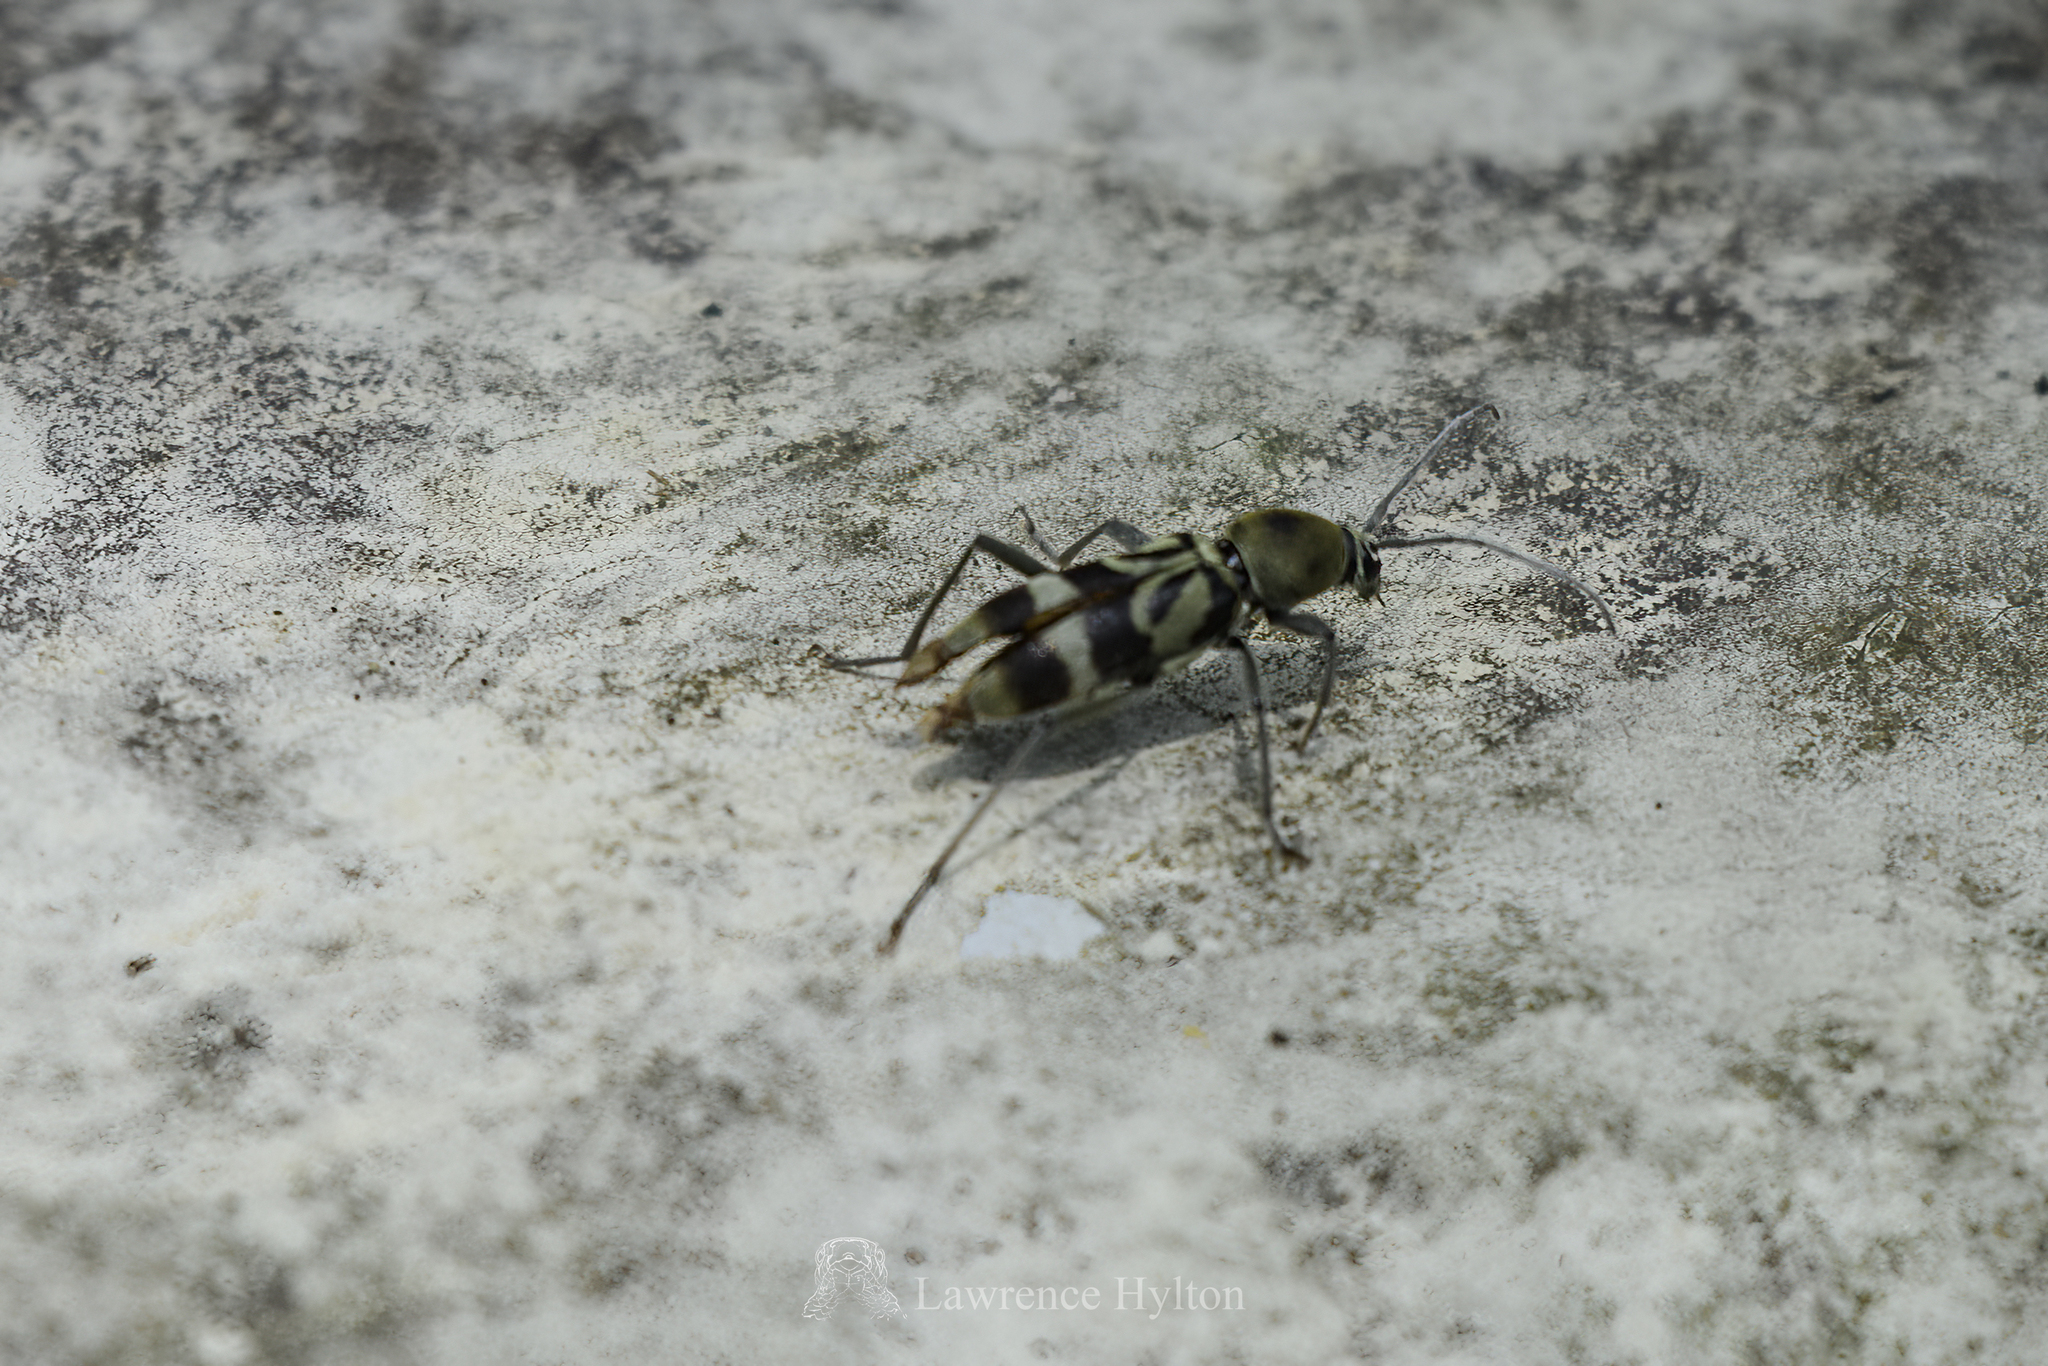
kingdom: Animalia
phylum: Arthropoda
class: Insecta
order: Coleoptera
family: Cerambycidae
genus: Chlorophorus
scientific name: Chlorophorus douei
